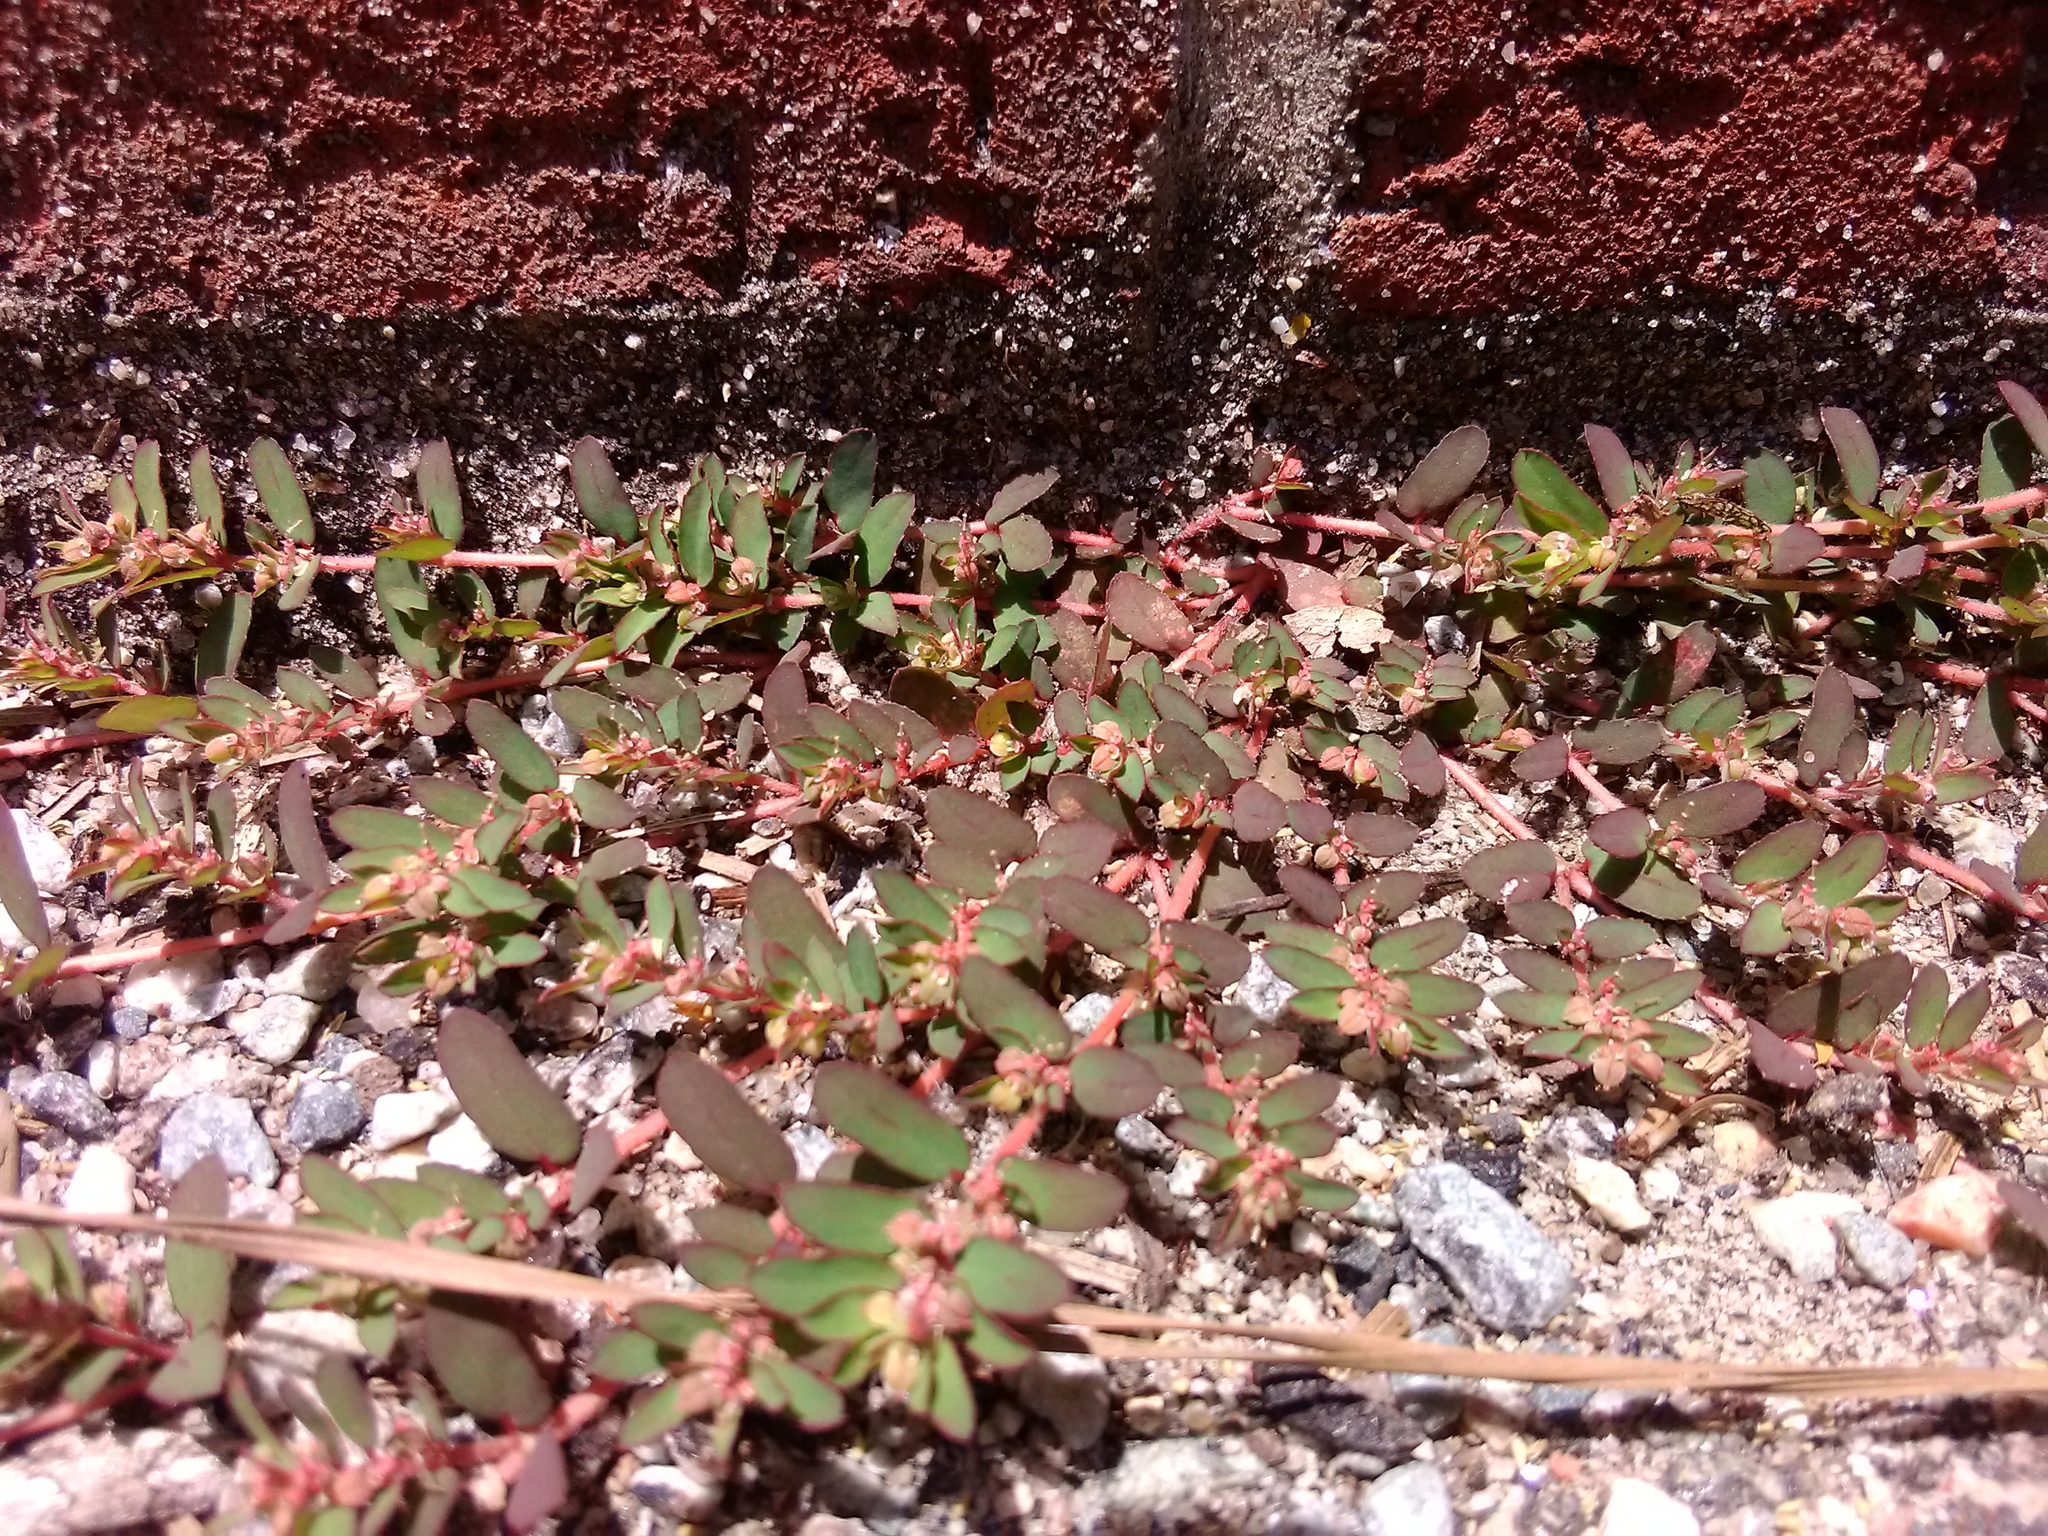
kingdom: Plantae
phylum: Tracheophyta
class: Magnoliopsida
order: Malpighiales
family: Euphorbiaceae
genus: Euphorbia
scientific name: Euphorbia maculata
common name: Spotted spurge
